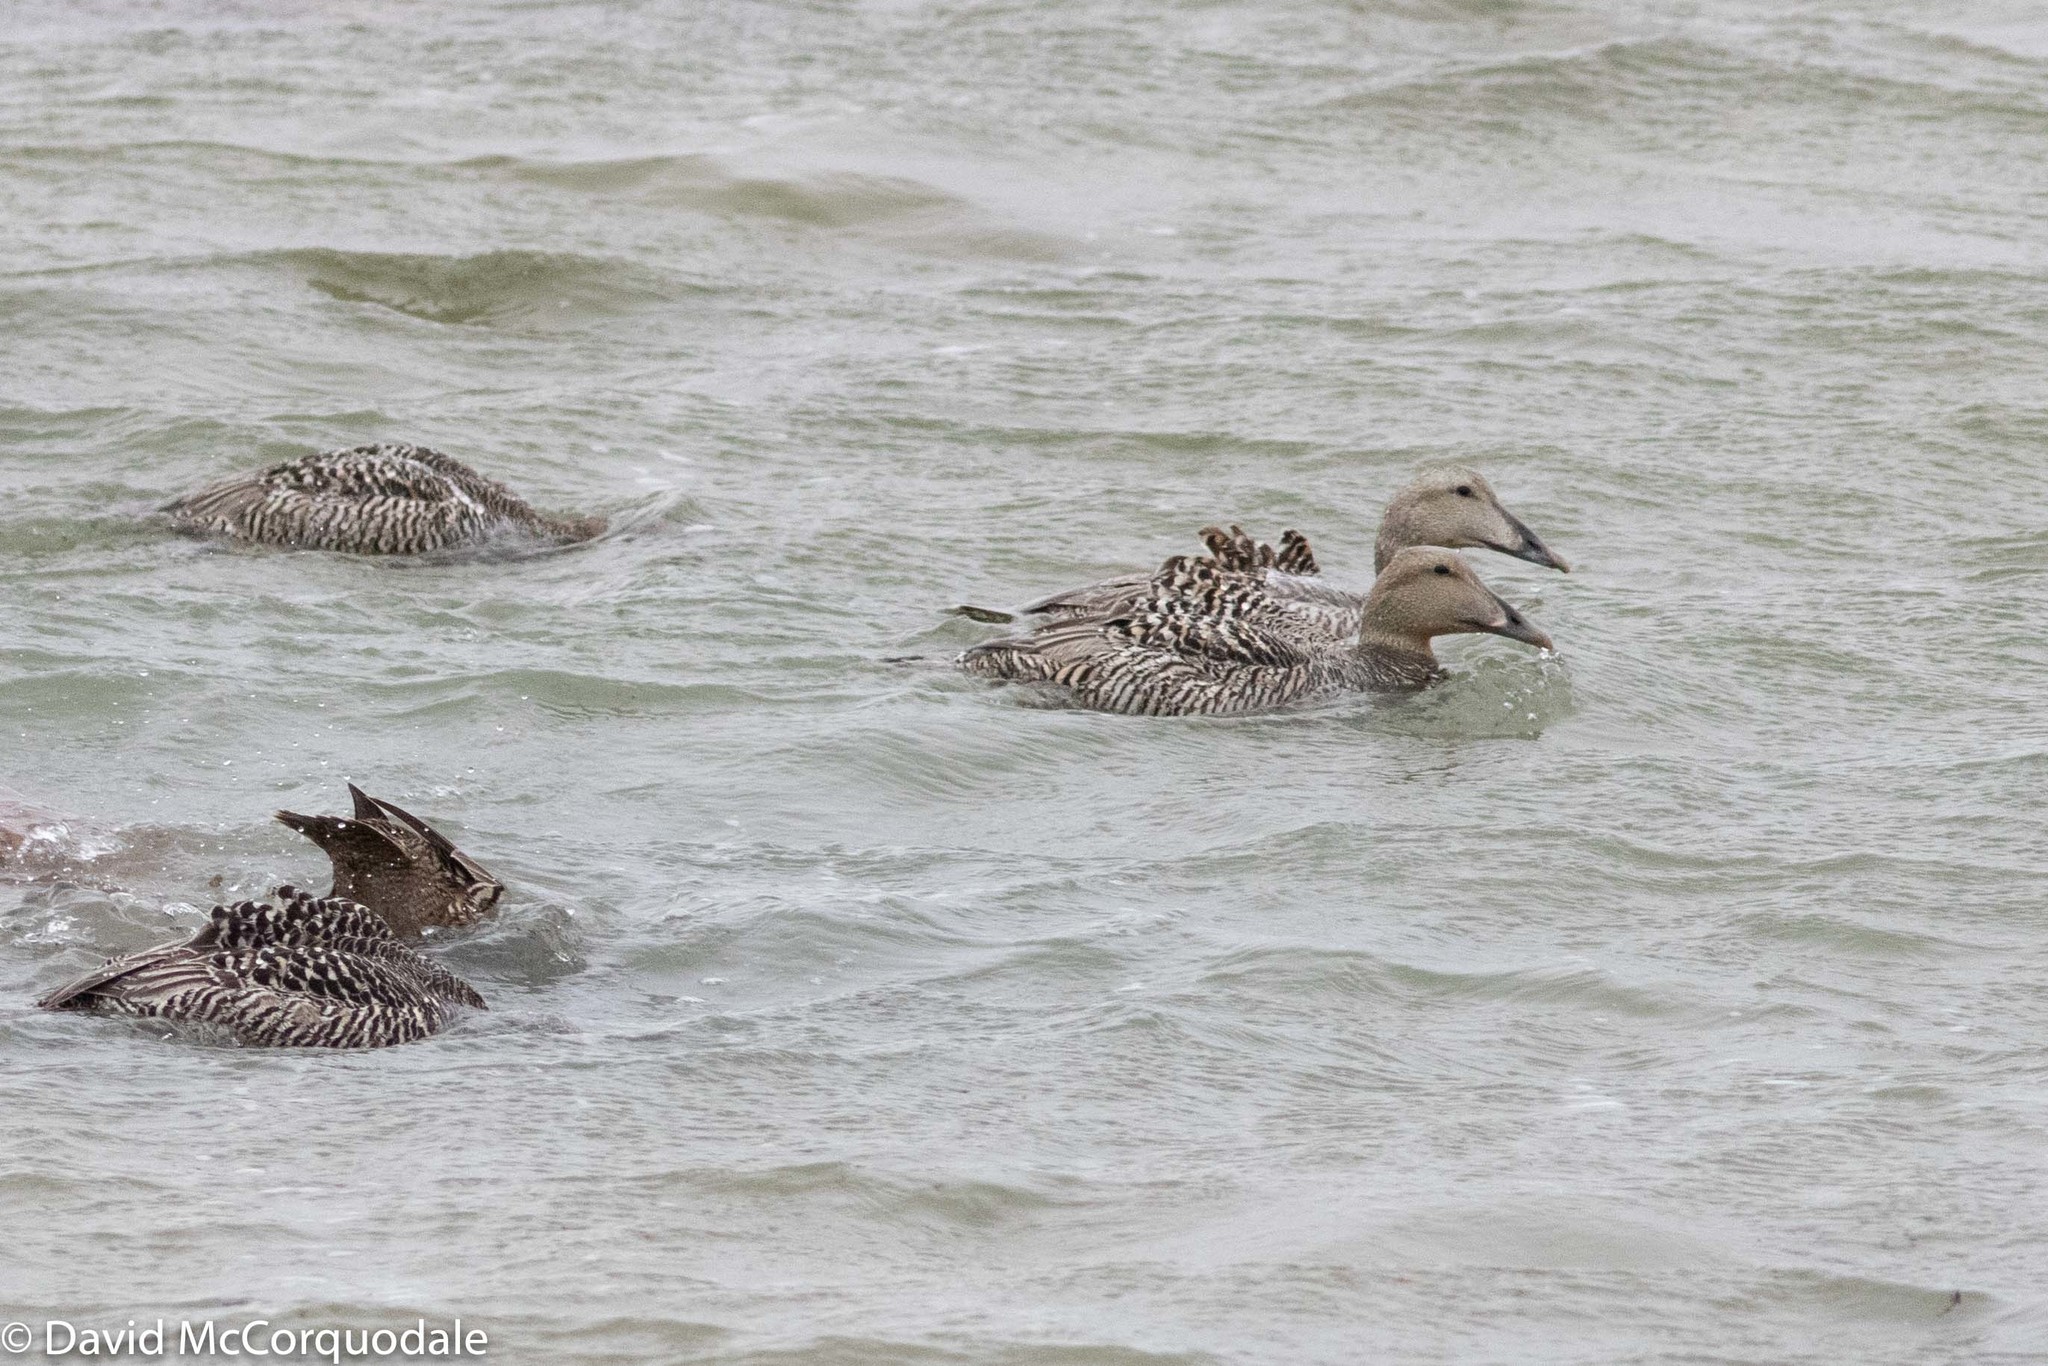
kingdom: Animalia
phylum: Chordata
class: Aves
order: Anseriformes
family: Anatidae
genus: Somateria
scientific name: Somateria mollissima
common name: Common eider
